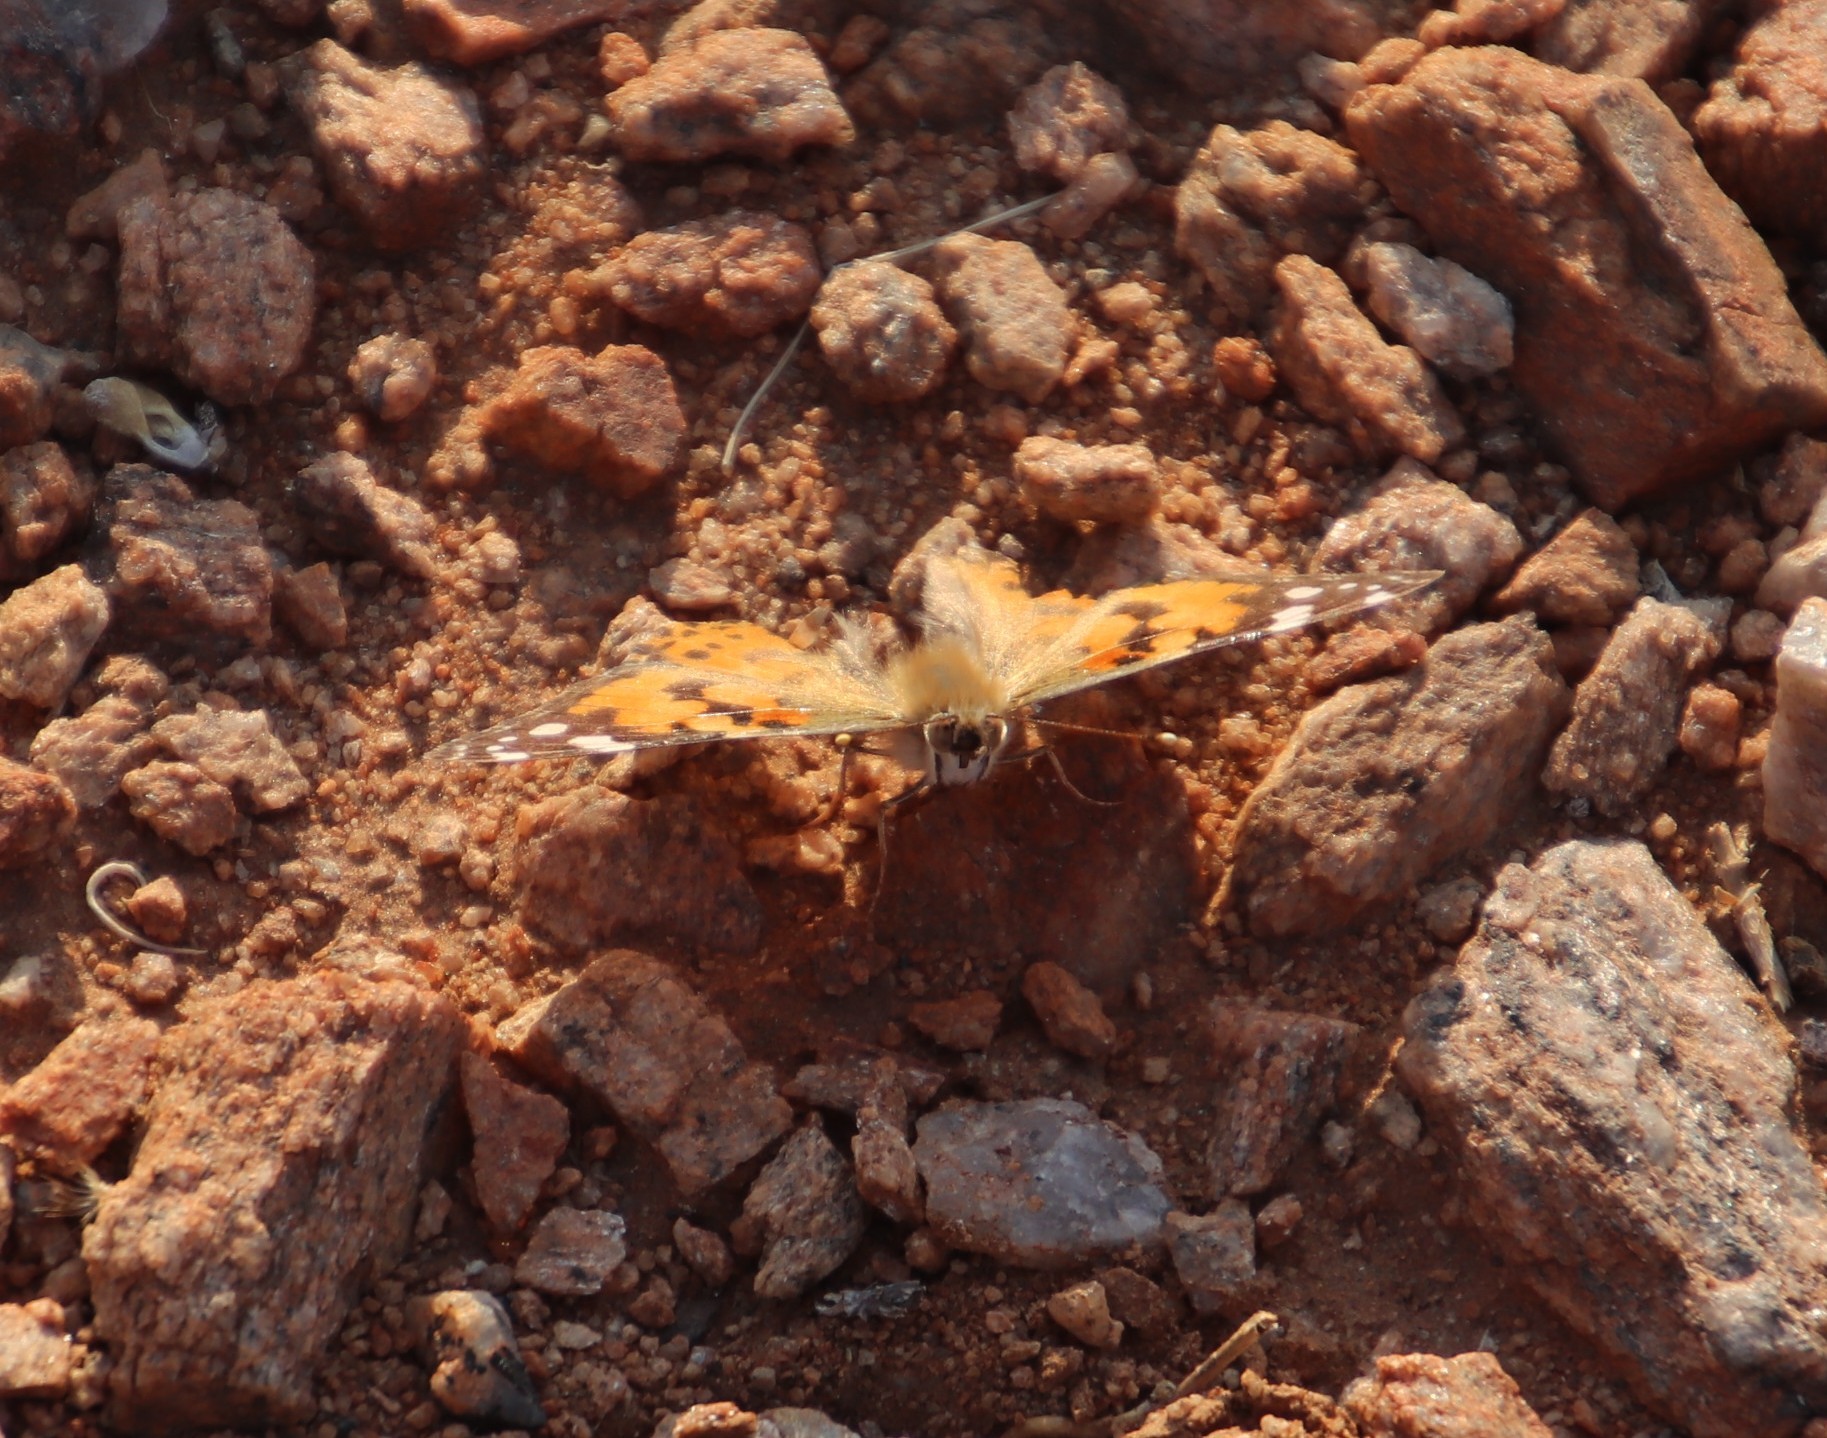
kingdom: Animalia
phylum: Arthropoda
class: Insecta
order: Lepidoptera
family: Nymphalidae
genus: Vanessa
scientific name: Vanessa cardui
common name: Painted lady
